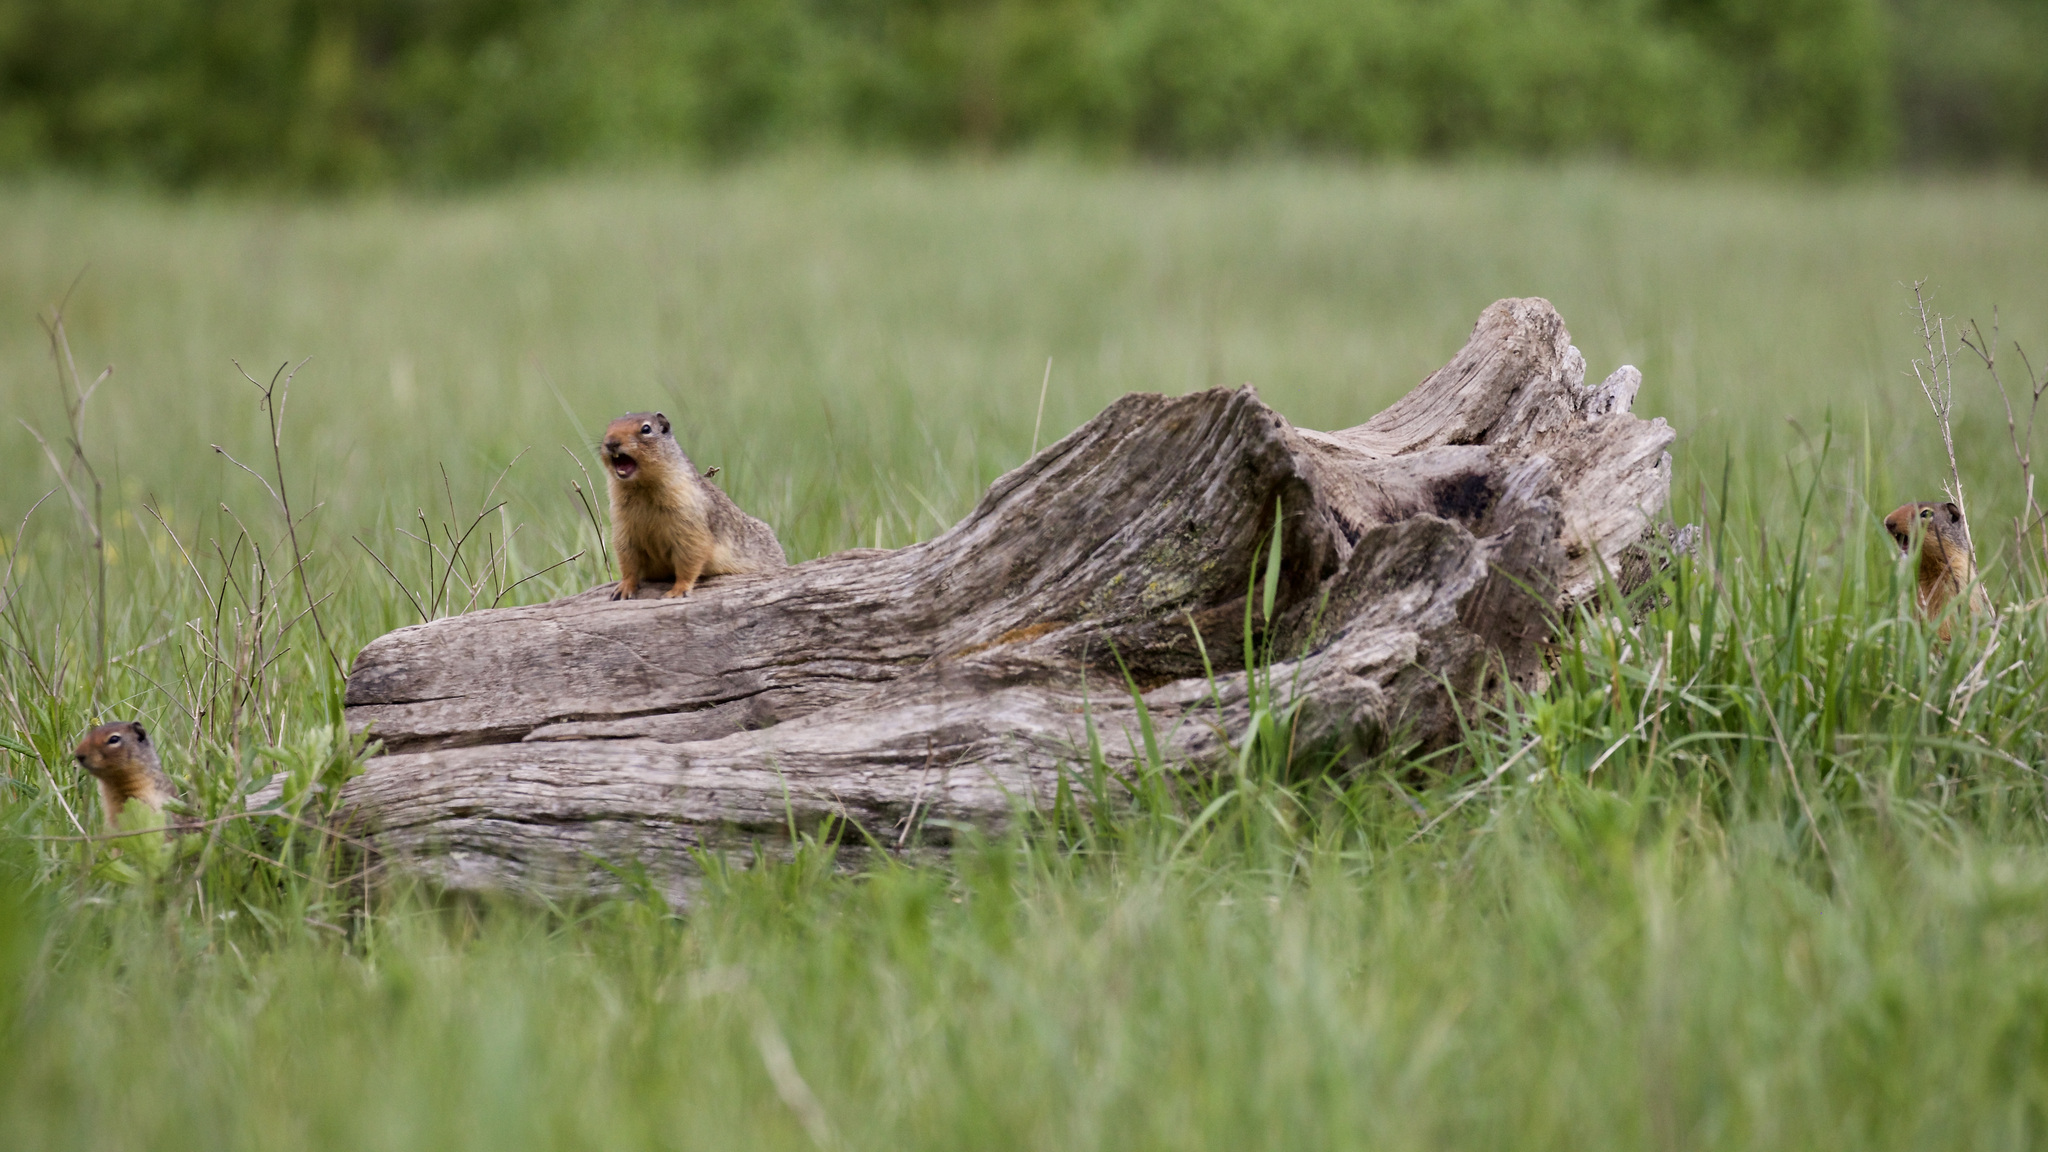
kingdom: Animalia
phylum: Chordata
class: Mammalia
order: Rodentia
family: Sciuridae
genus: Urocitellus
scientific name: Urocitellus columbianus
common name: Columbian ground squirrel
